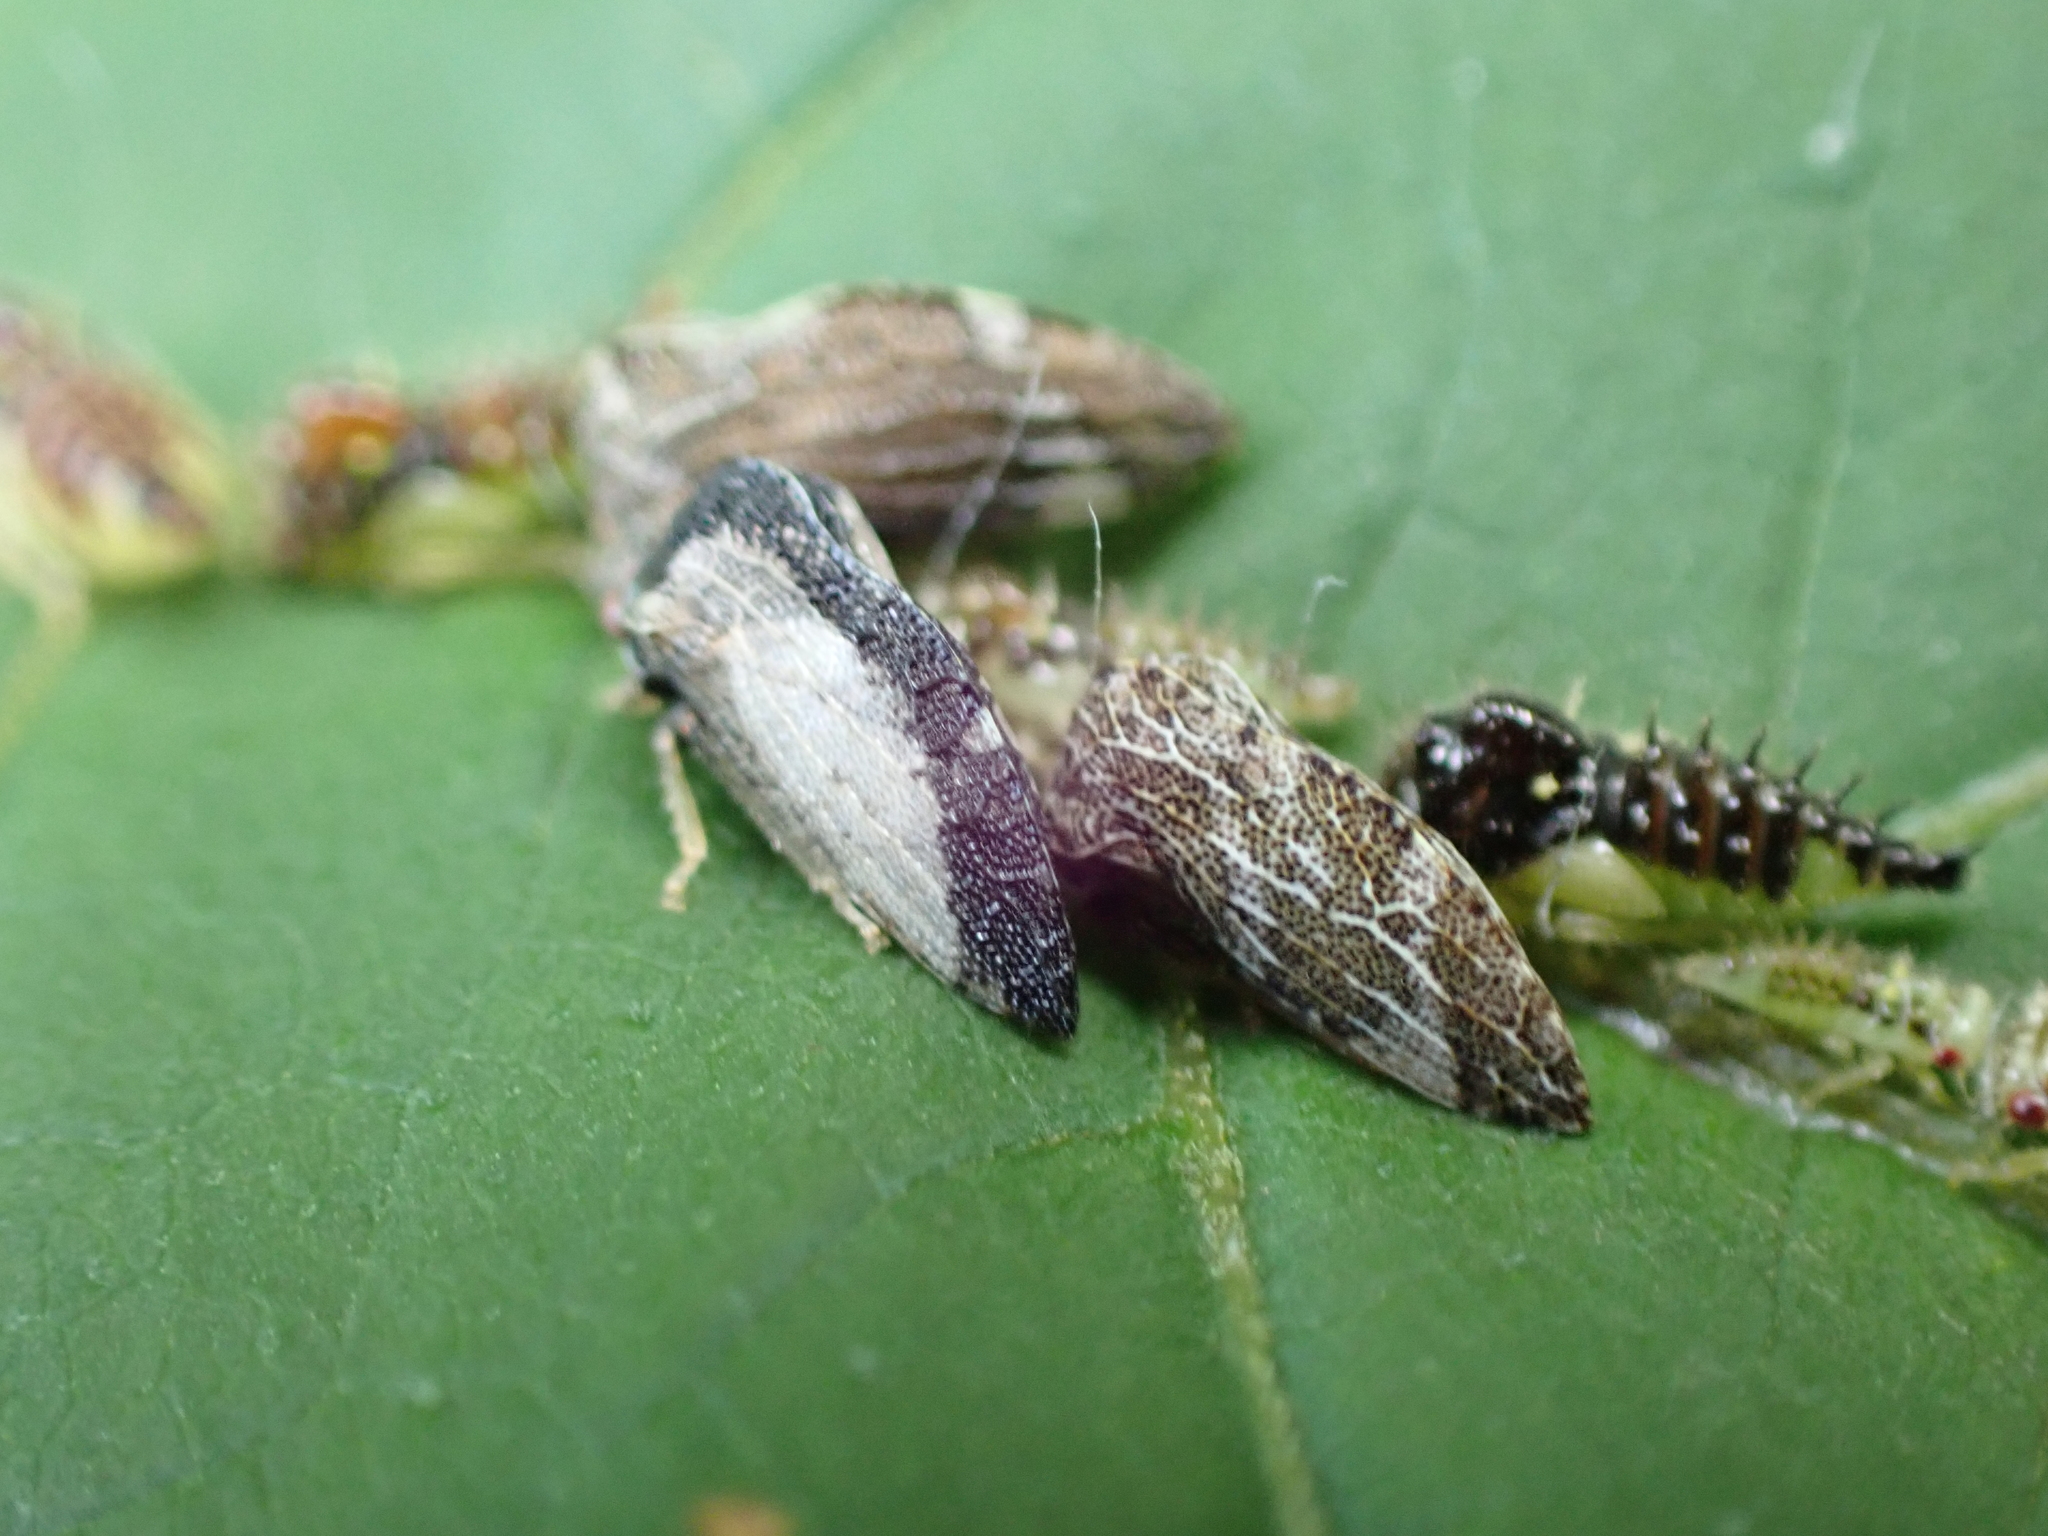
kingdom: Animalia
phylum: Arthropoda
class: Insecta
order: Hemiptera
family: Membracidae
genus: Publilia
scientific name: Publilia concava
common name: Aster treehopper
